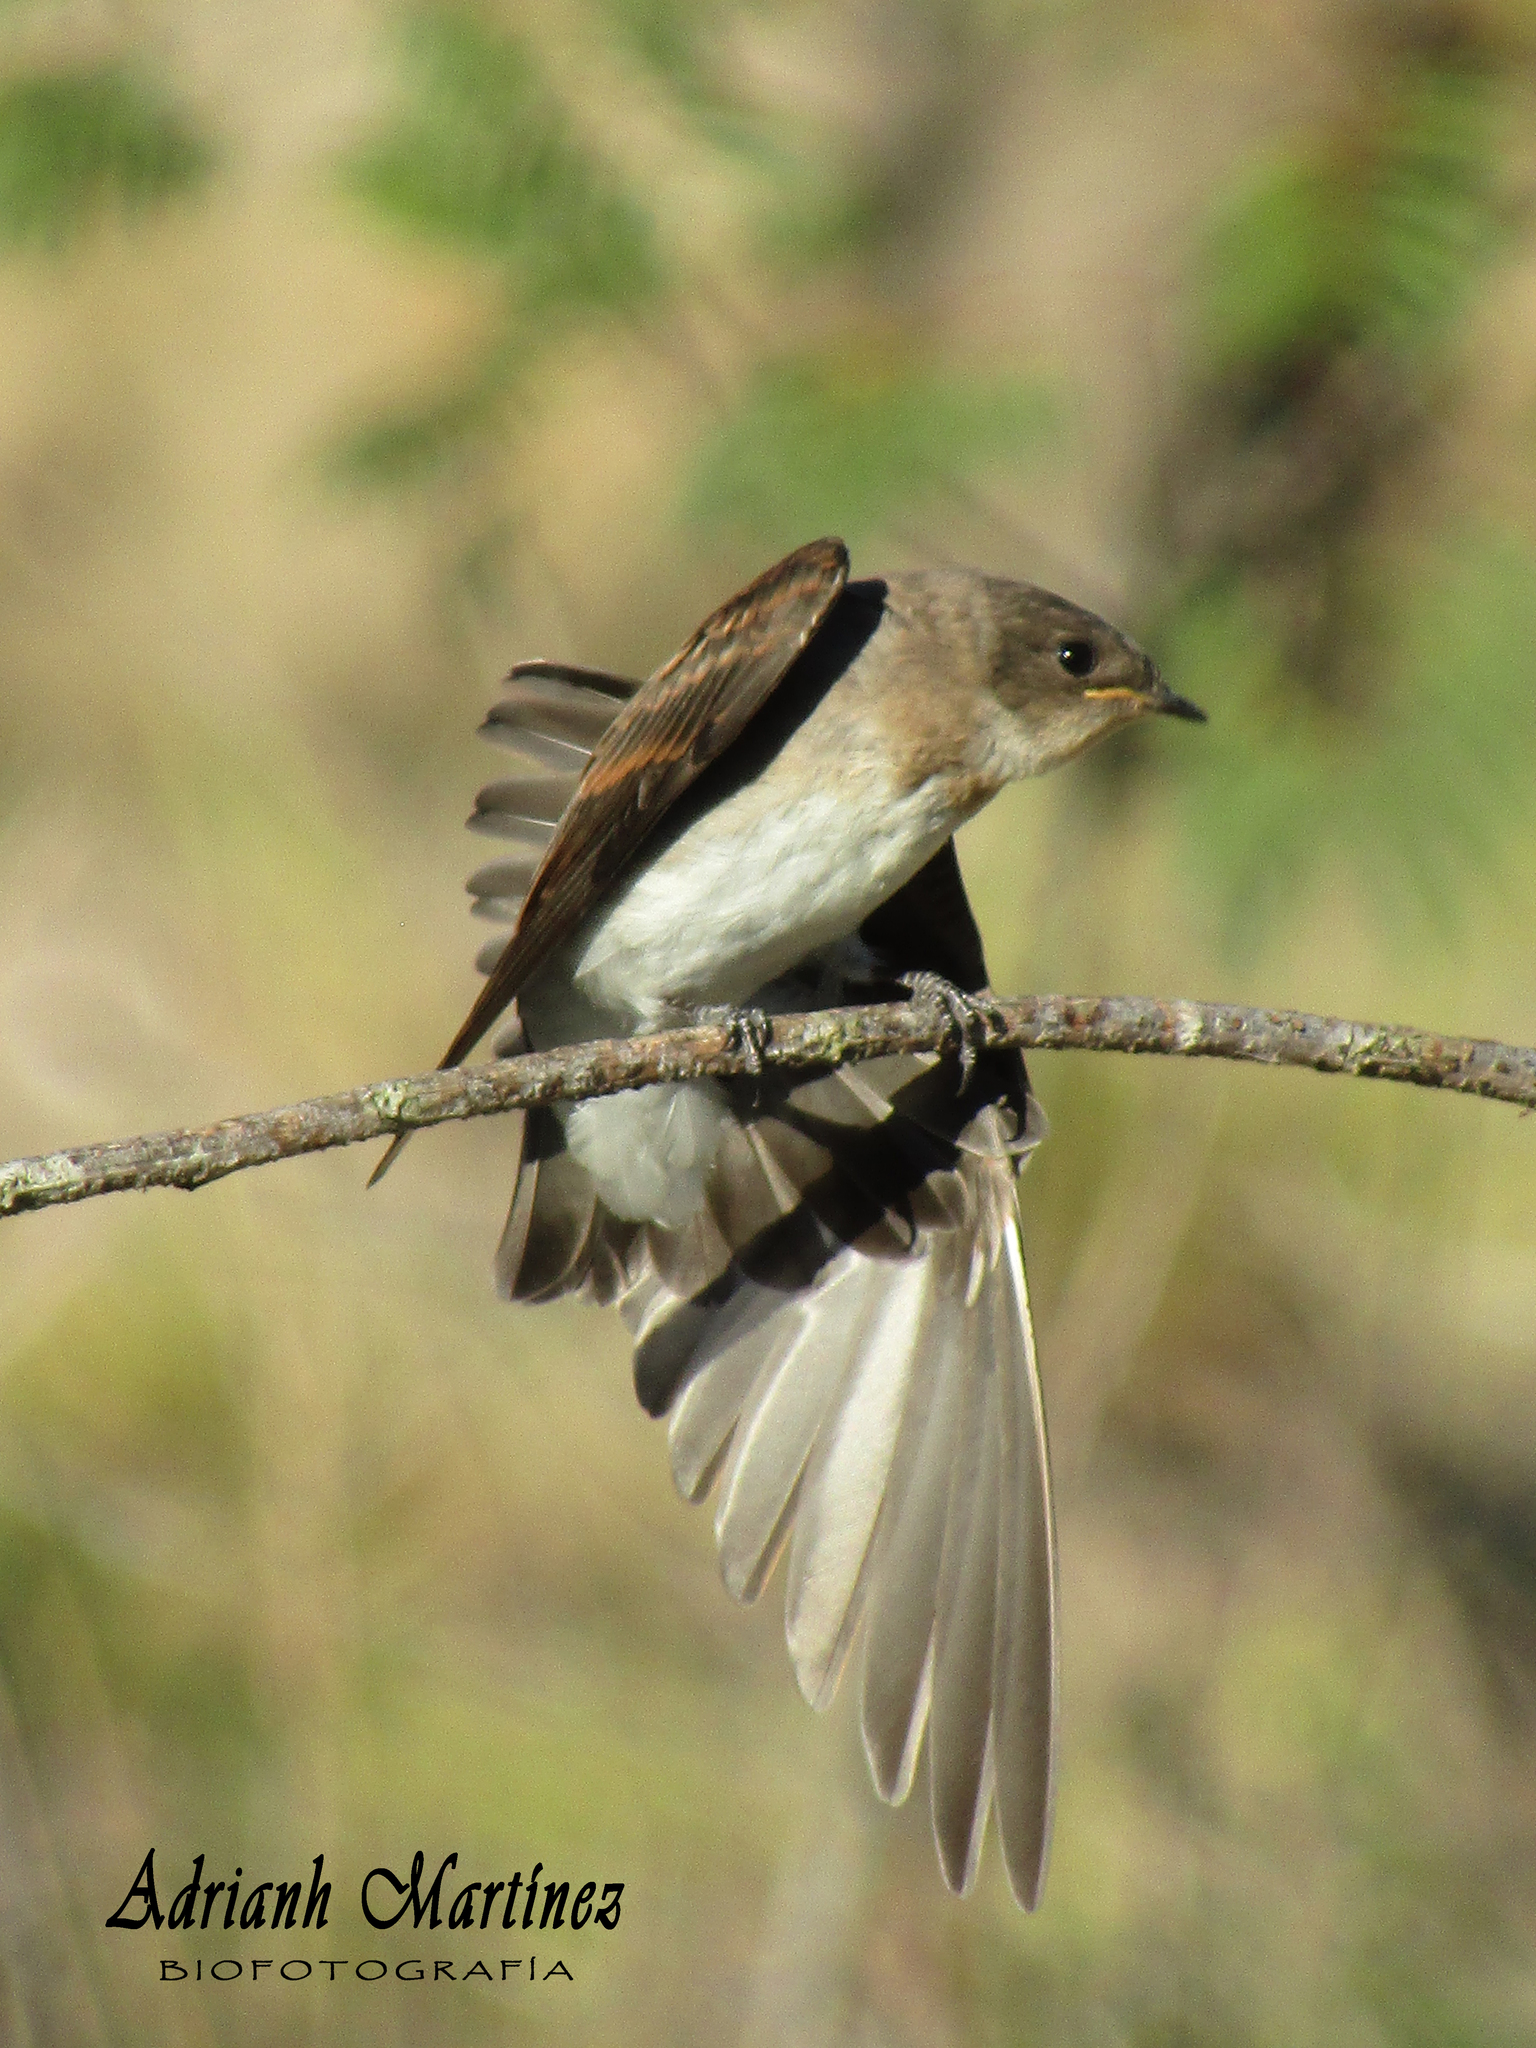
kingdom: Animalia
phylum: Chordata
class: Aves
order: Passeriformes
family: Hirundinidae
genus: Stelgidopteryx
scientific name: Stelgidopteryx serripennis
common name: Northern rough-winged swallow
